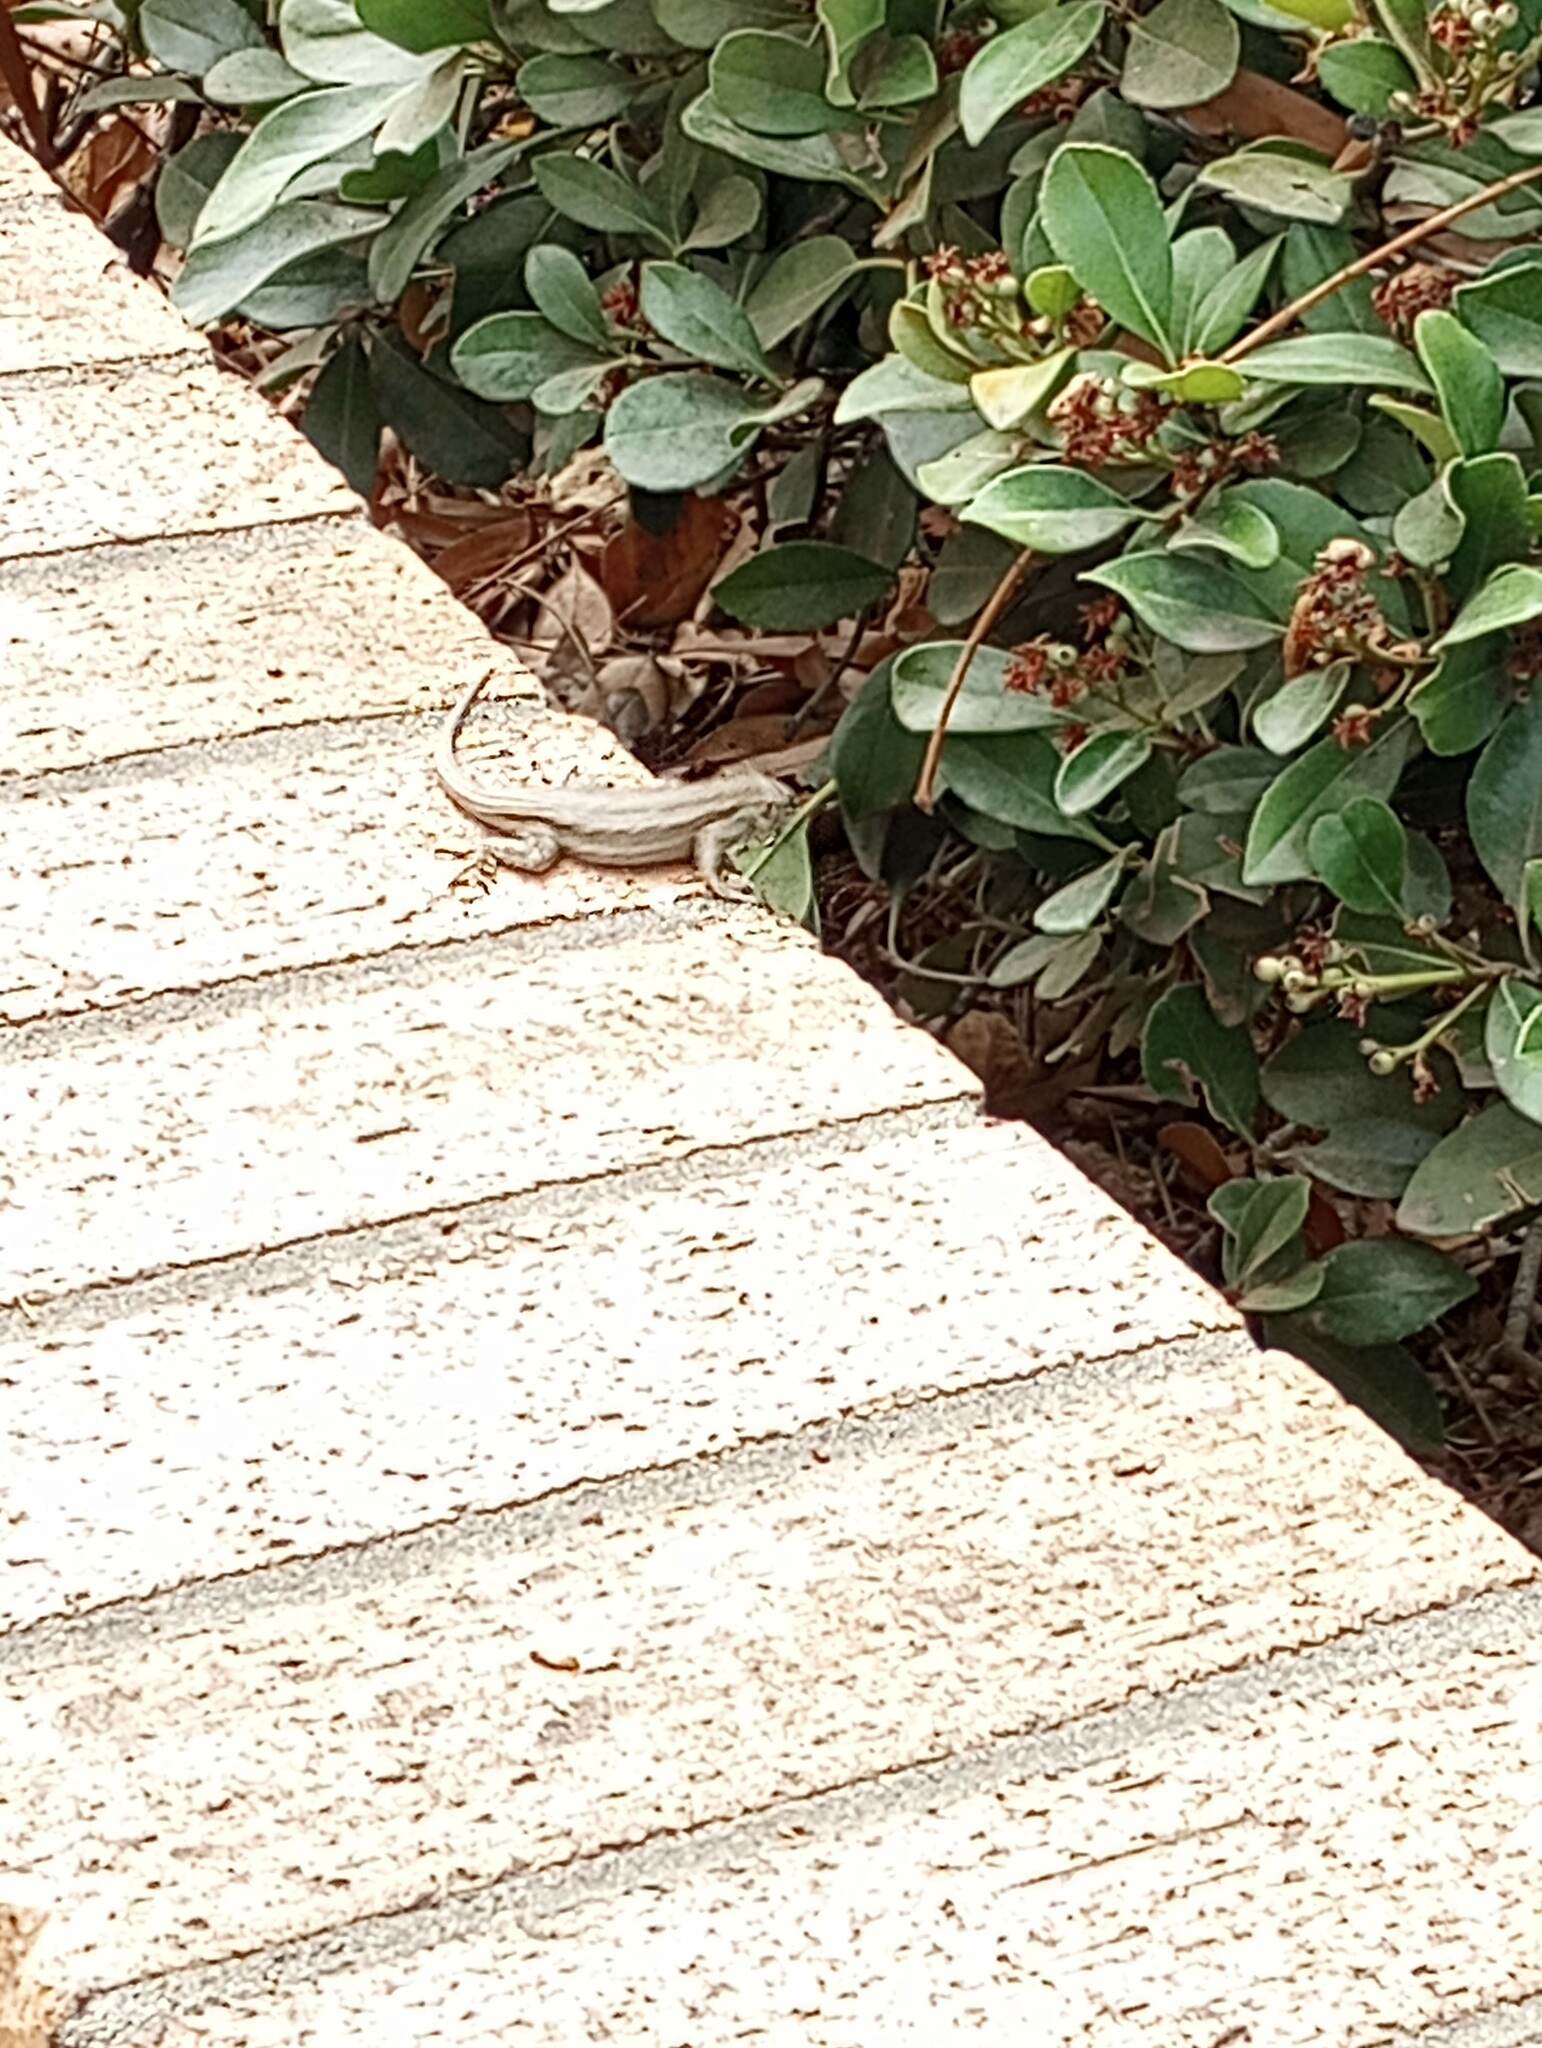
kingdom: Animalia
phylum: Chordata
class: Squamata
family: Phrynosomatidae
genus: Sceloporus
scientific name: Sceloporus occidentalis
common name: Western fence lizard
